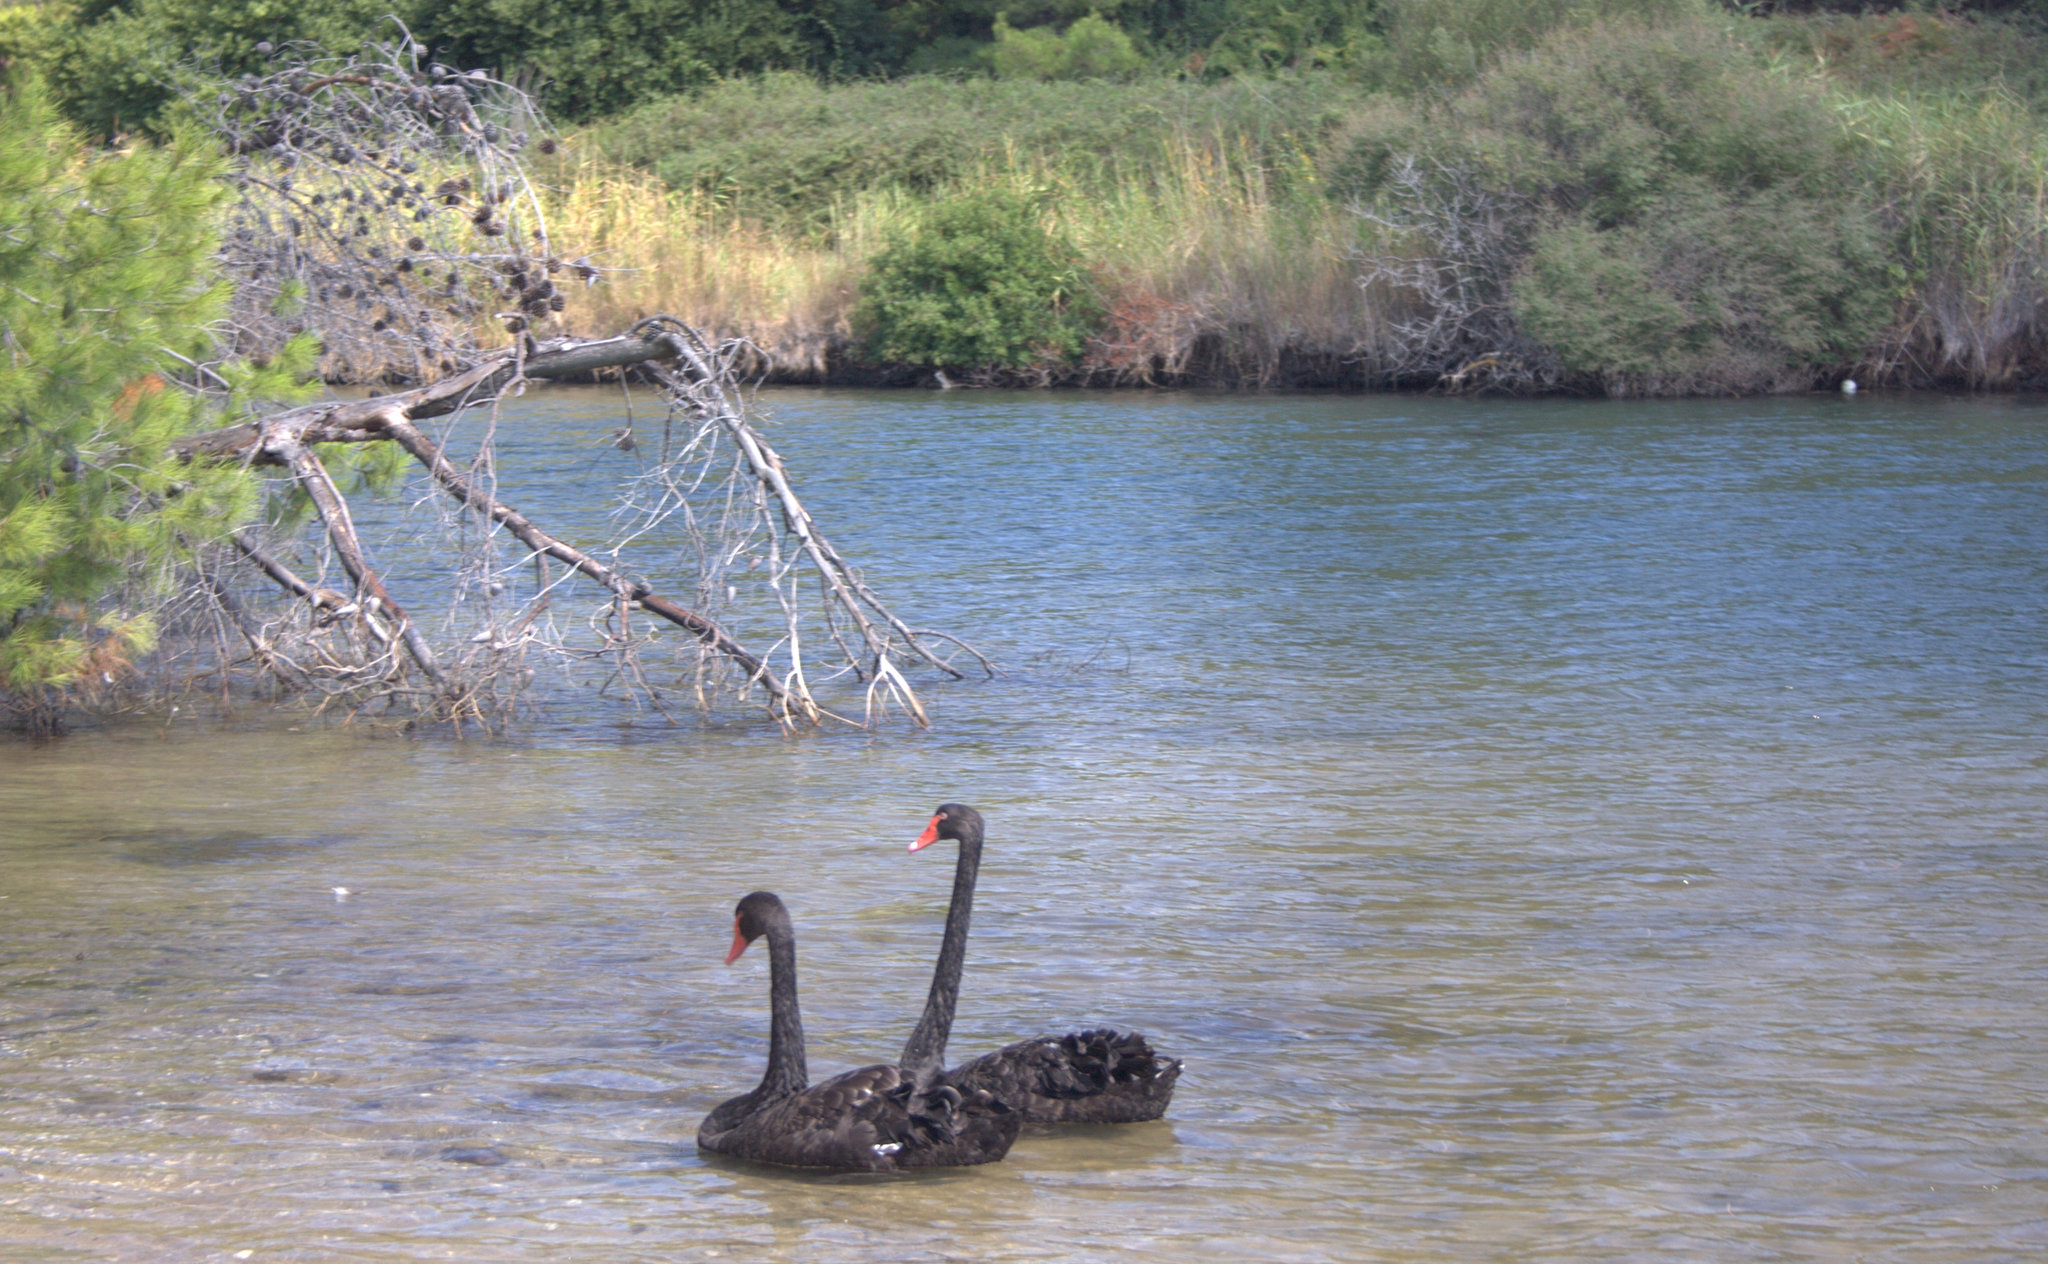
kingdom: Animalia
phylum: Chordata
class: Aves
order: Anseriformes
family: Anatidae
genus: Cygnus
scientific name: Cygnus atratus
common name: Black swan
